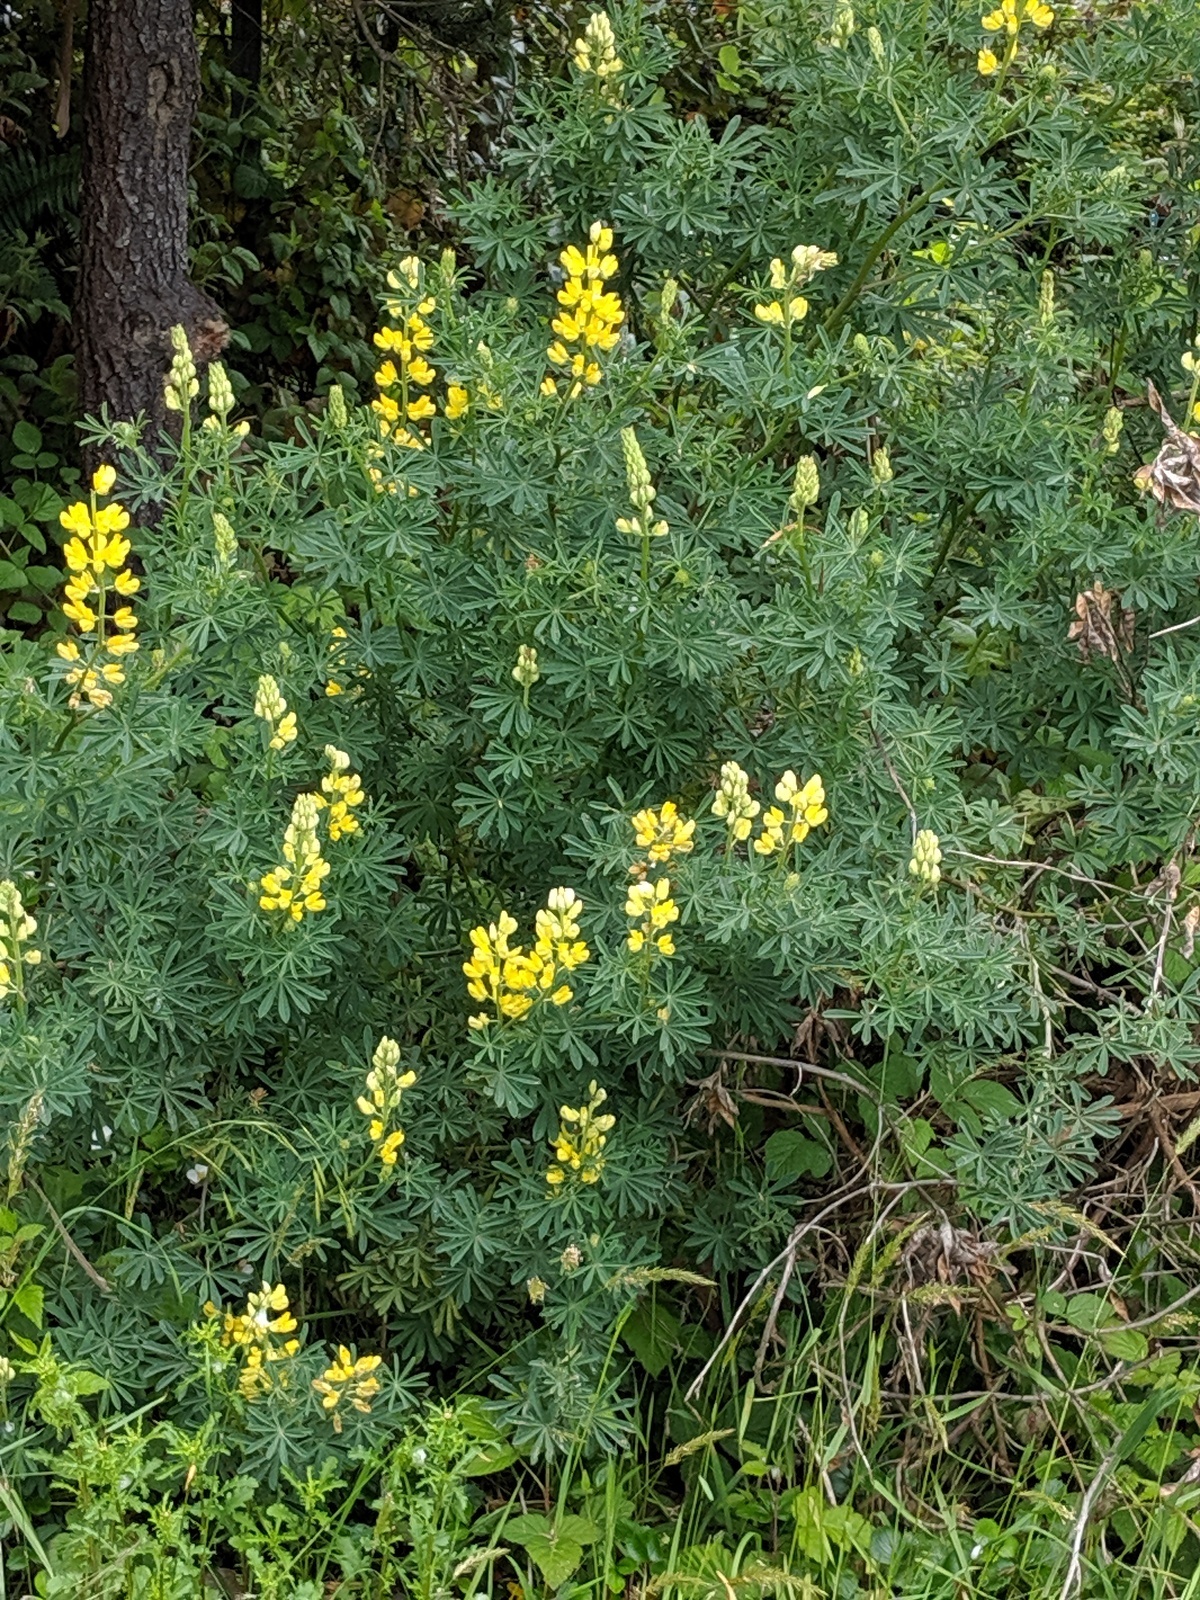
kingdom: Plantae
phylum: Tracheophyta
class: Magnoliopsida
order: Fabales
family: Fabaceae
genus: Lupinus
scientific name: Lupinus arboreus
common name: Yellow bush lupine
